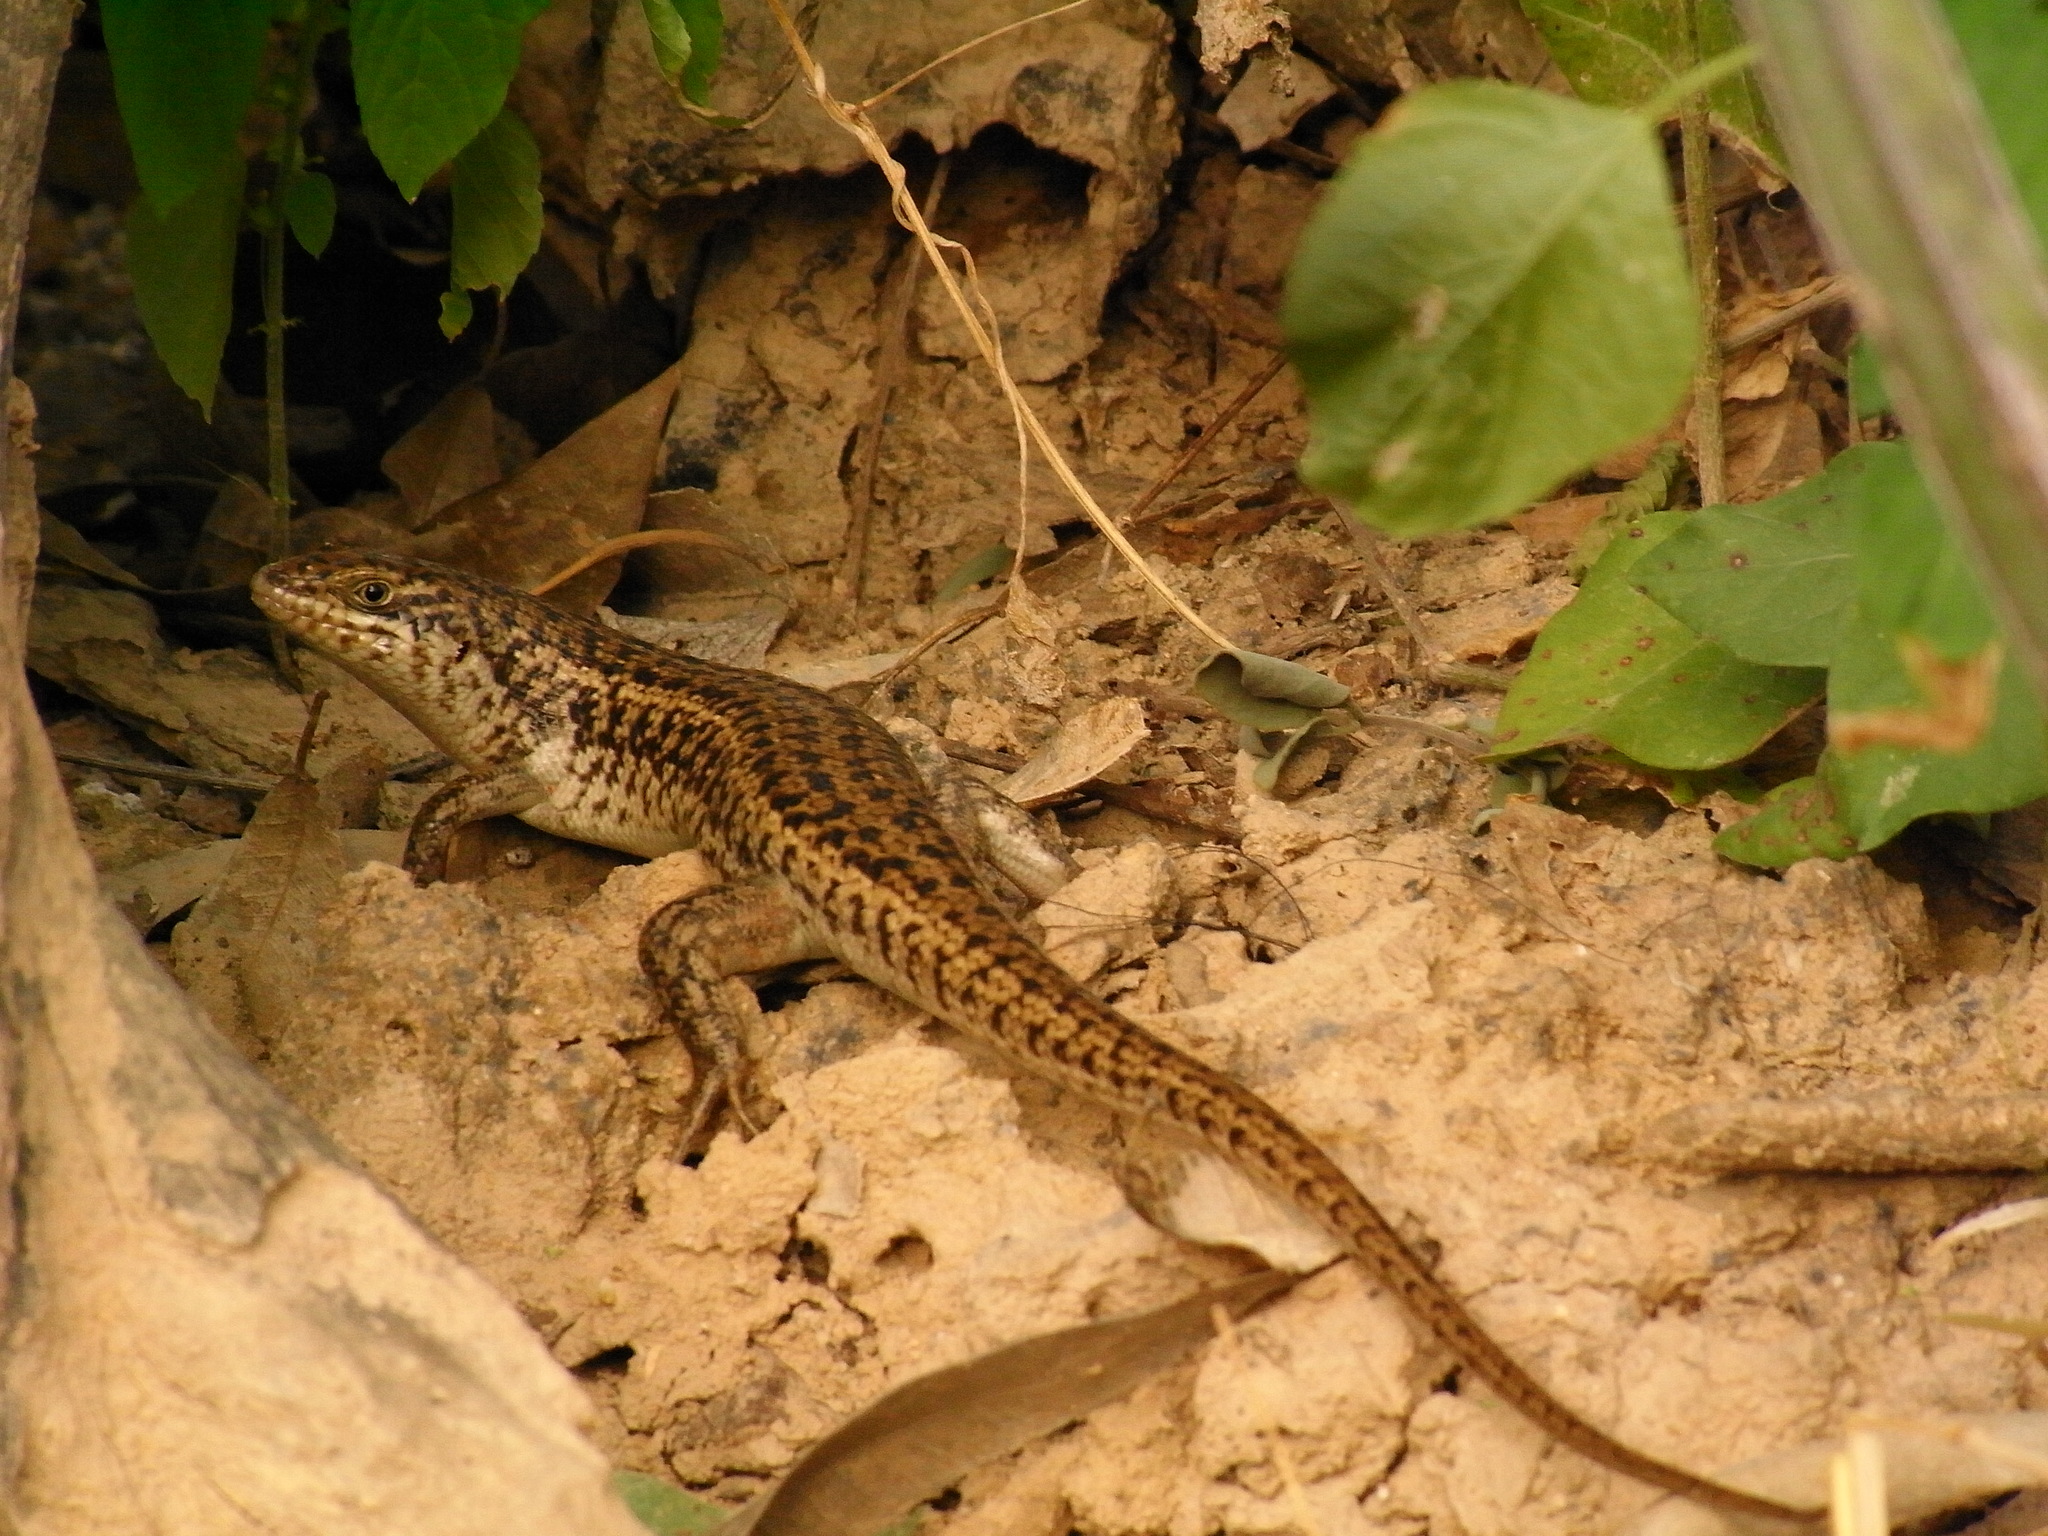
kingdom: Animalia
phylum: Chordata
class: Squamata
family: Scincidae
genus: Trachylepis
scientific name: Trachylepis brevicollis
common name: Short-necked skink
